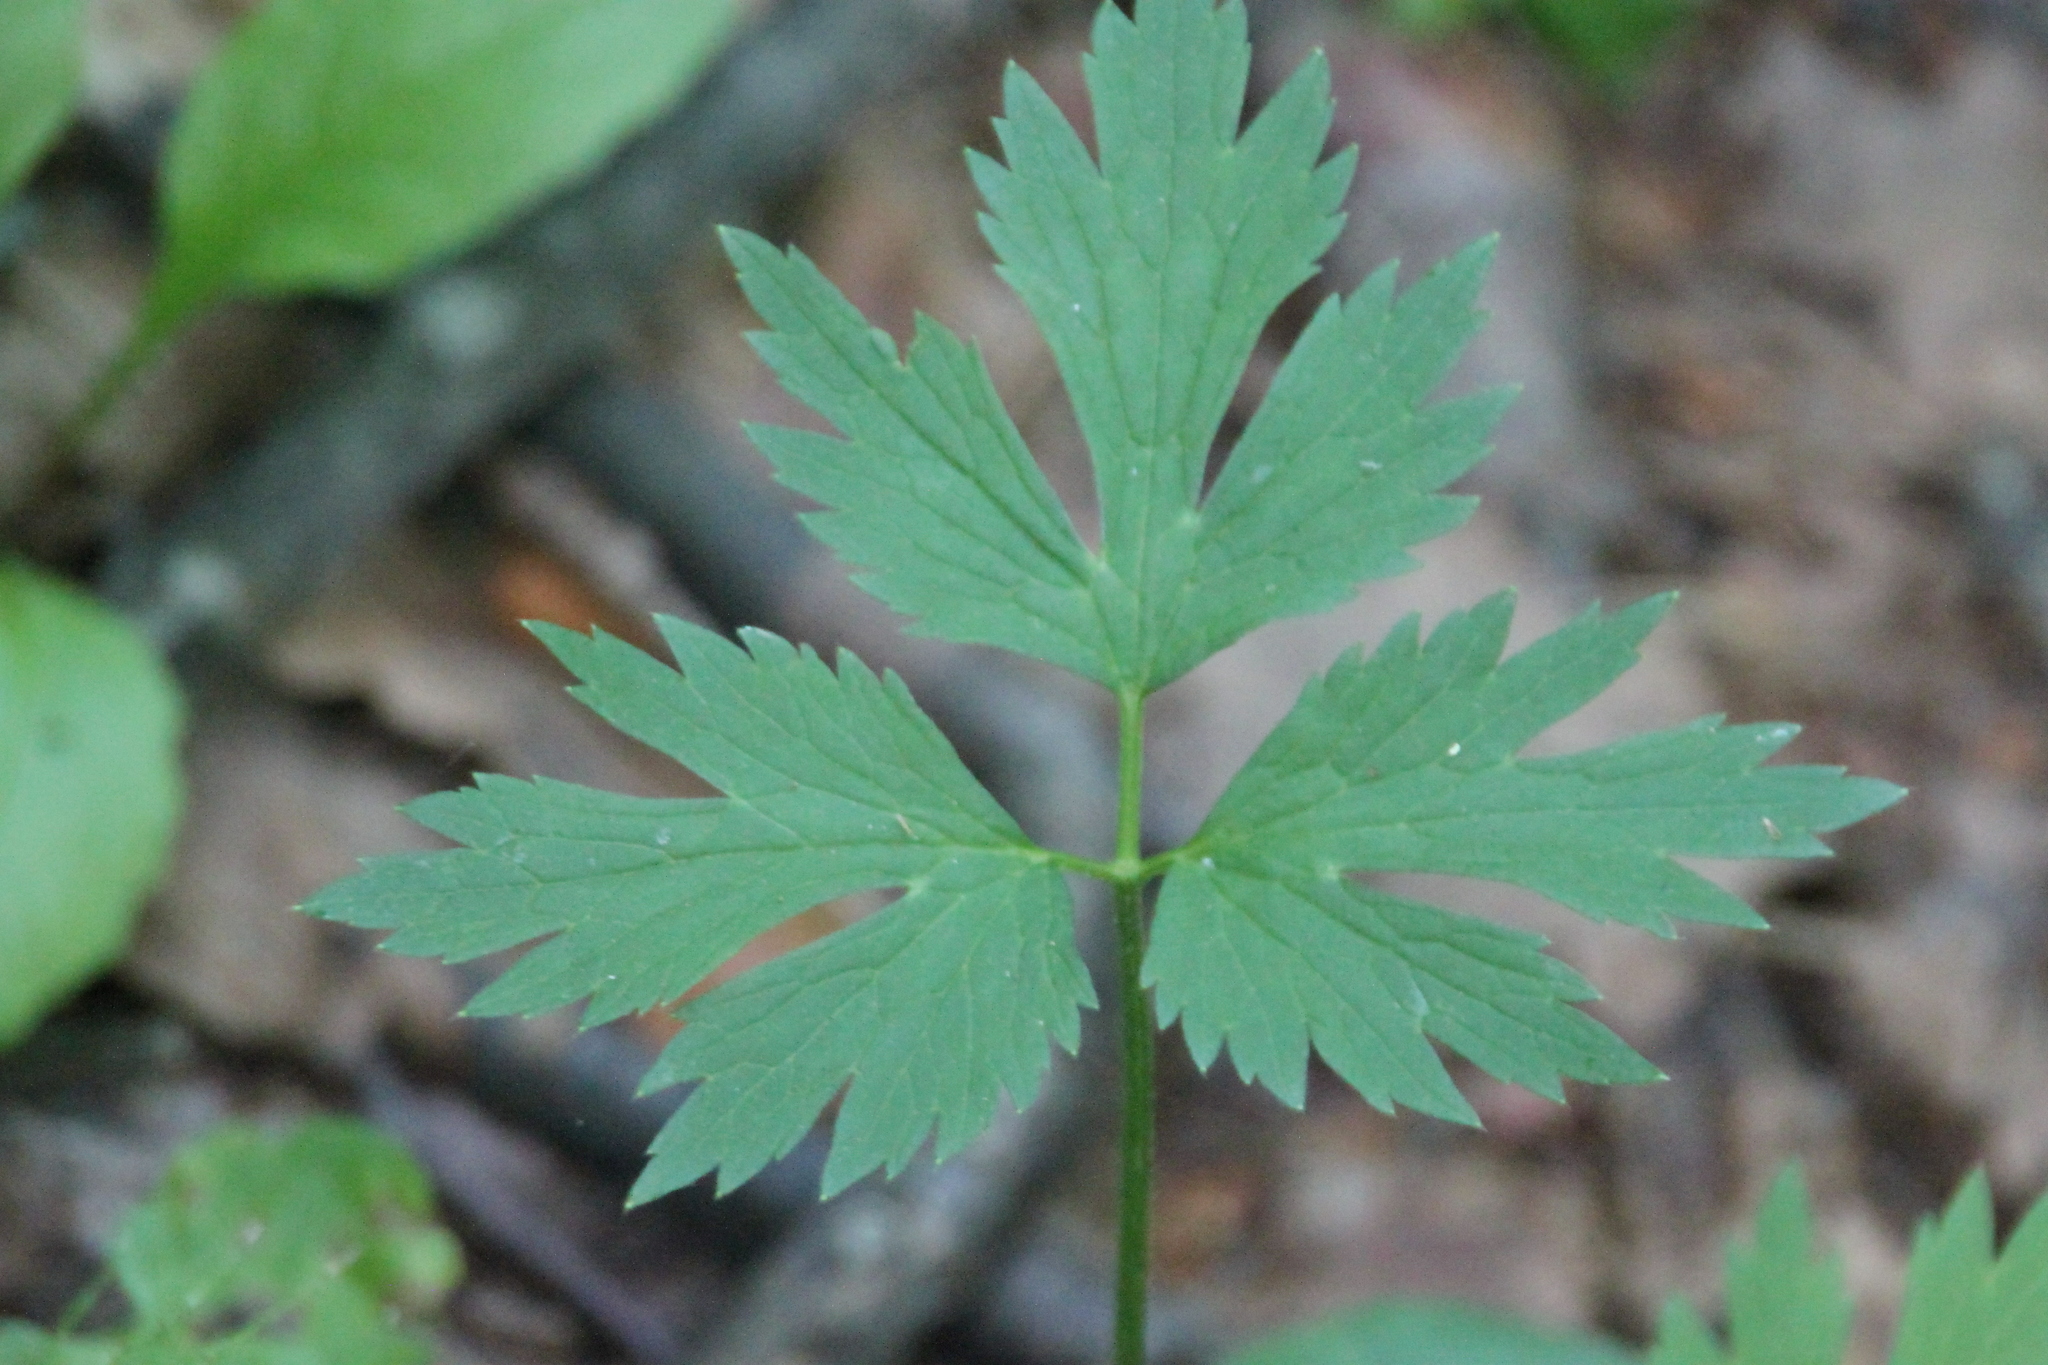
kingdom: Plantae
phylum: Tracheophyta
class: Magnoliopsida
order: Ranunculales
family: Ranunculaceae
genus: Ranunculus
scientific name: Ranunculus repens
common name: Creeping buttercup
